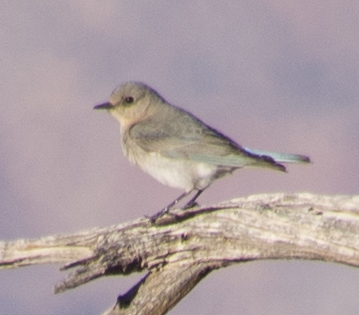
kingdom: Animalia
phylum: Chordata
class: Aves
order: Passeriformes
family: Turdidae
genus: Sialia
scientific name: Sialia currucoides
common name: Mountain bluebird
